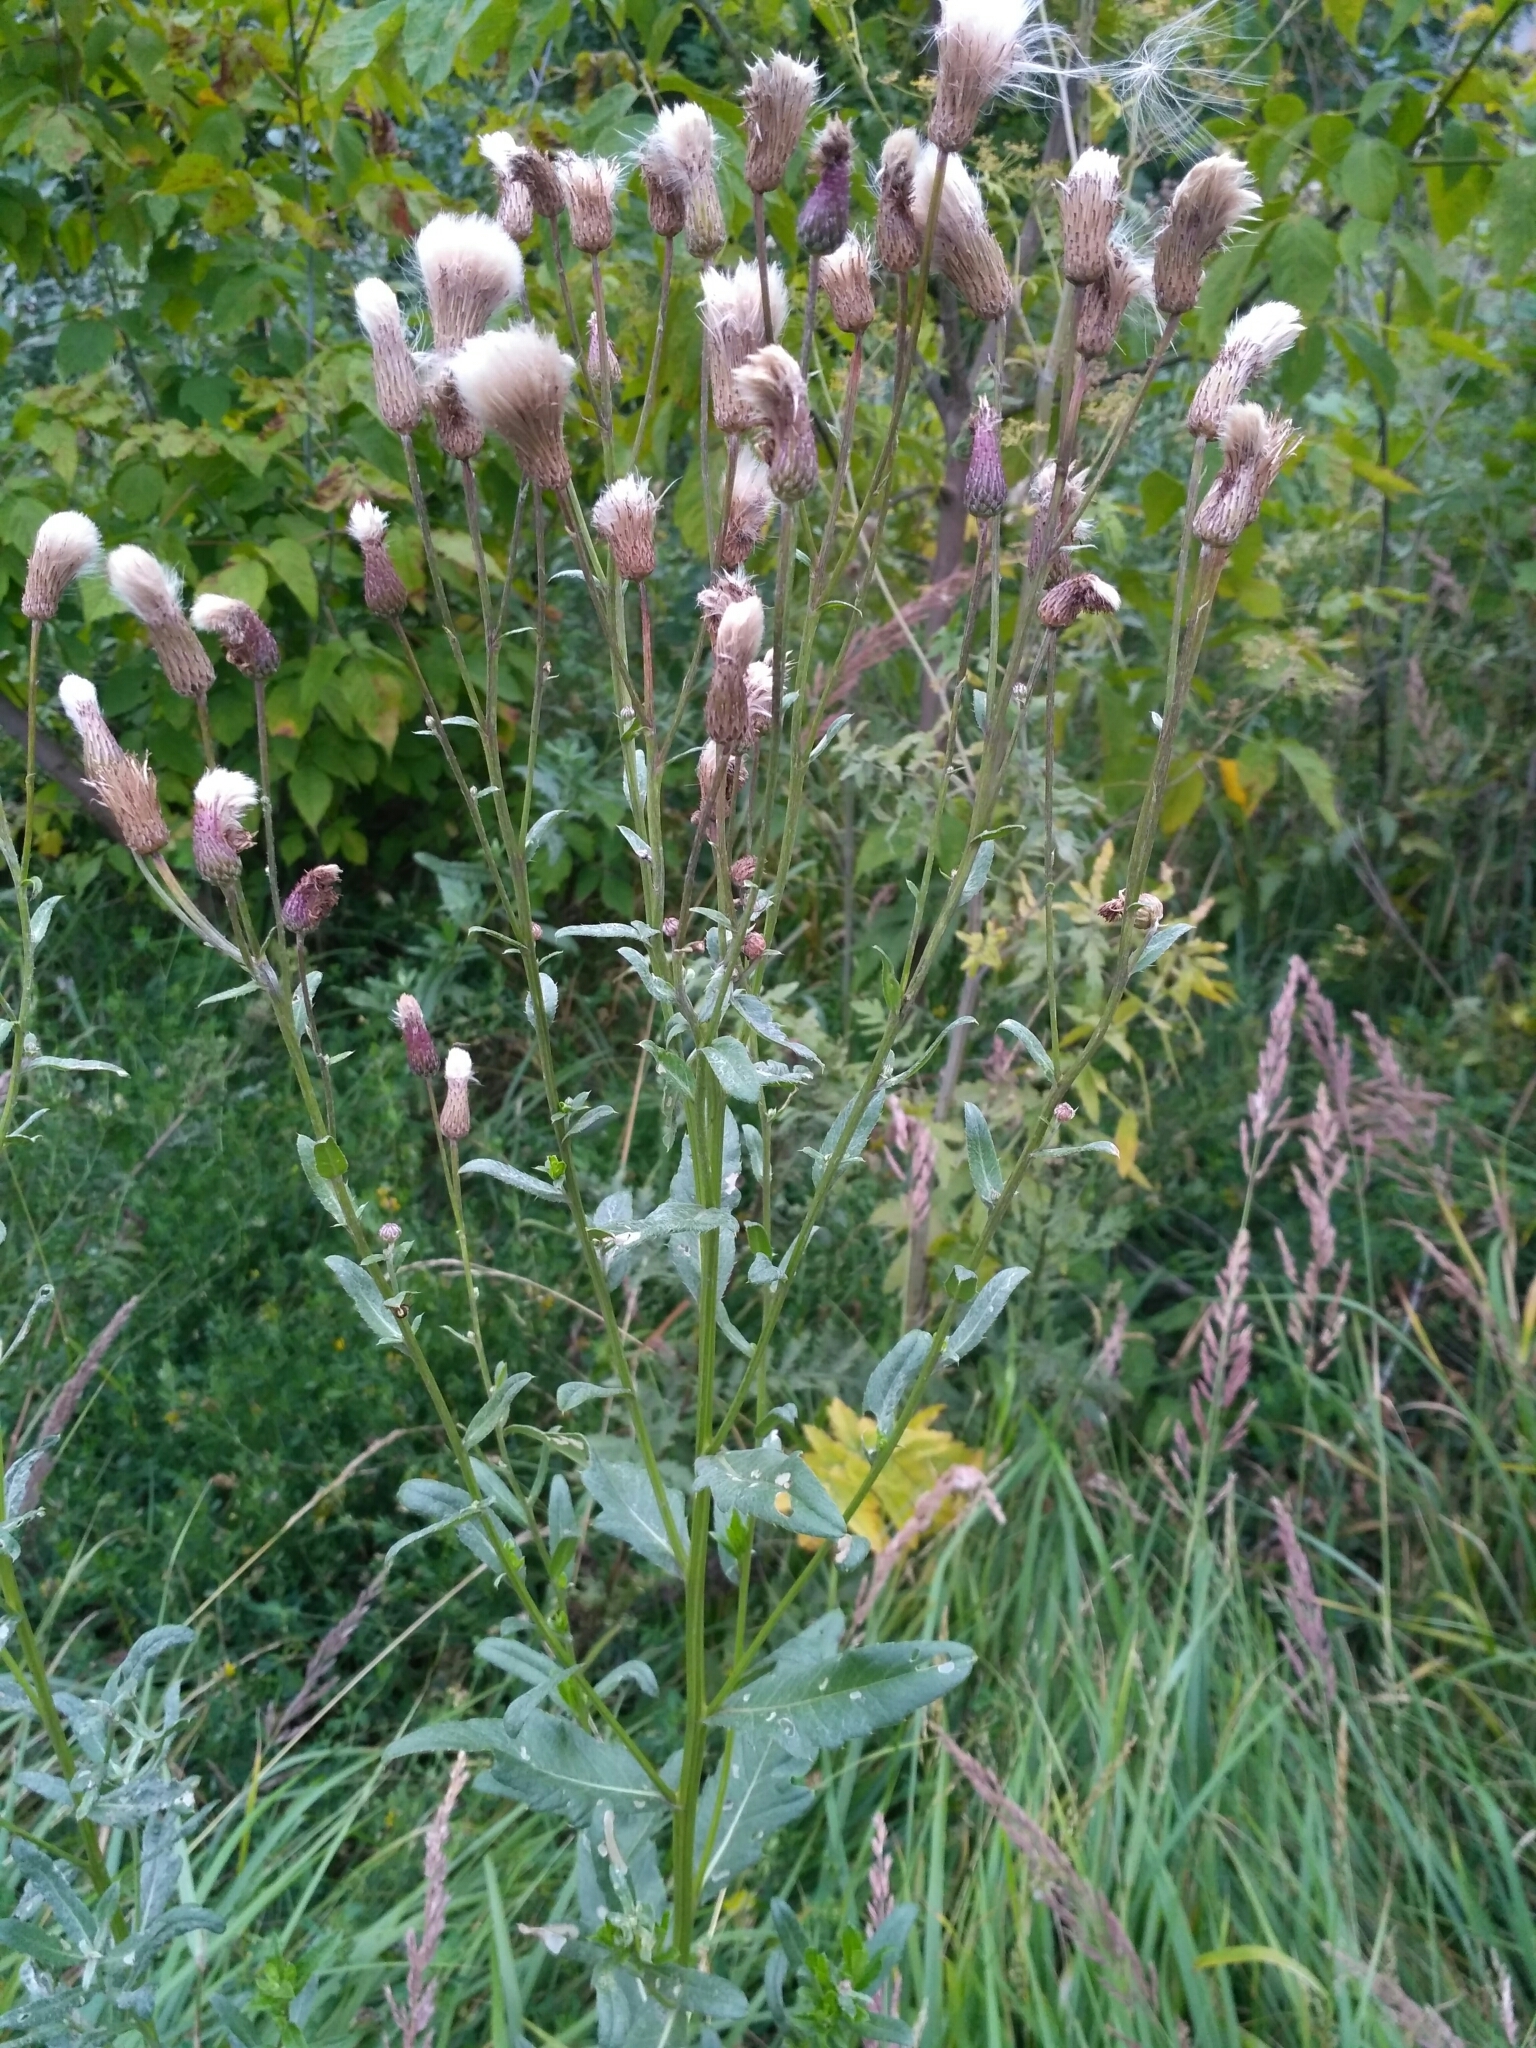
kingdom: Plantae
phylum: Tracheophyta
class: Magnoliopsida
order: Asterales
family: Asteraceae
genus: Cirsium
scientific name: Cirsium arvense
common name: Creeping thistle
